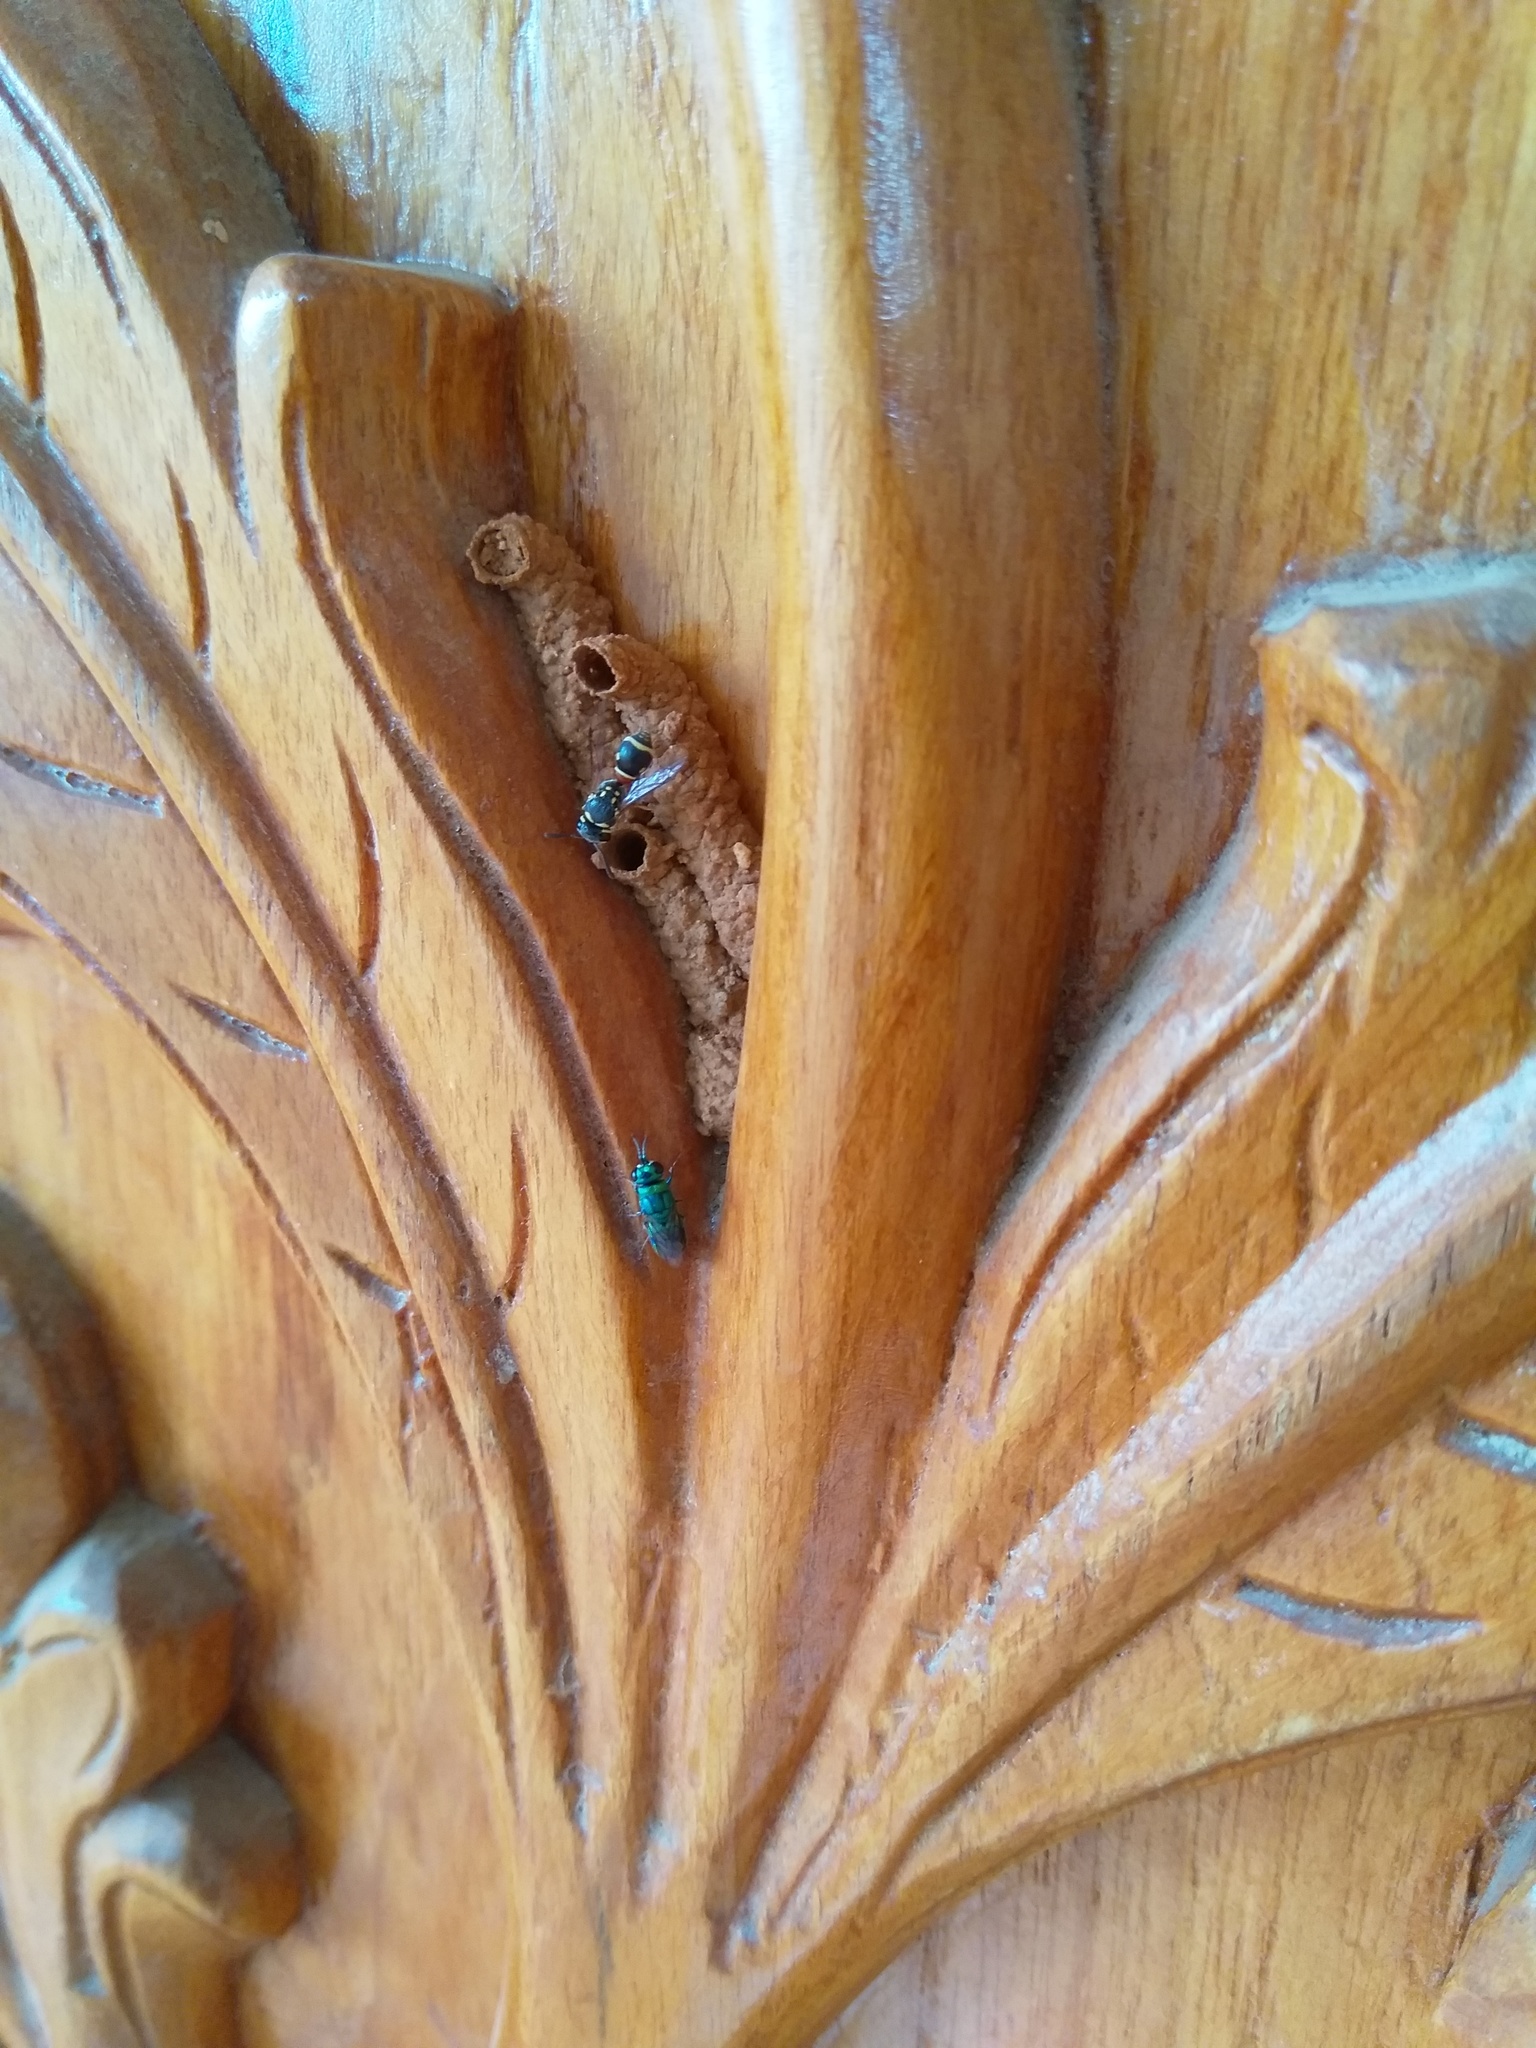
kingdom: Animalia
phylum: Arthropoda
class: Insecta
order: Hymenoptera
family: Eumenidae
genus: Paraleptomenes
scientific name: Paraleptomenes miniatus
